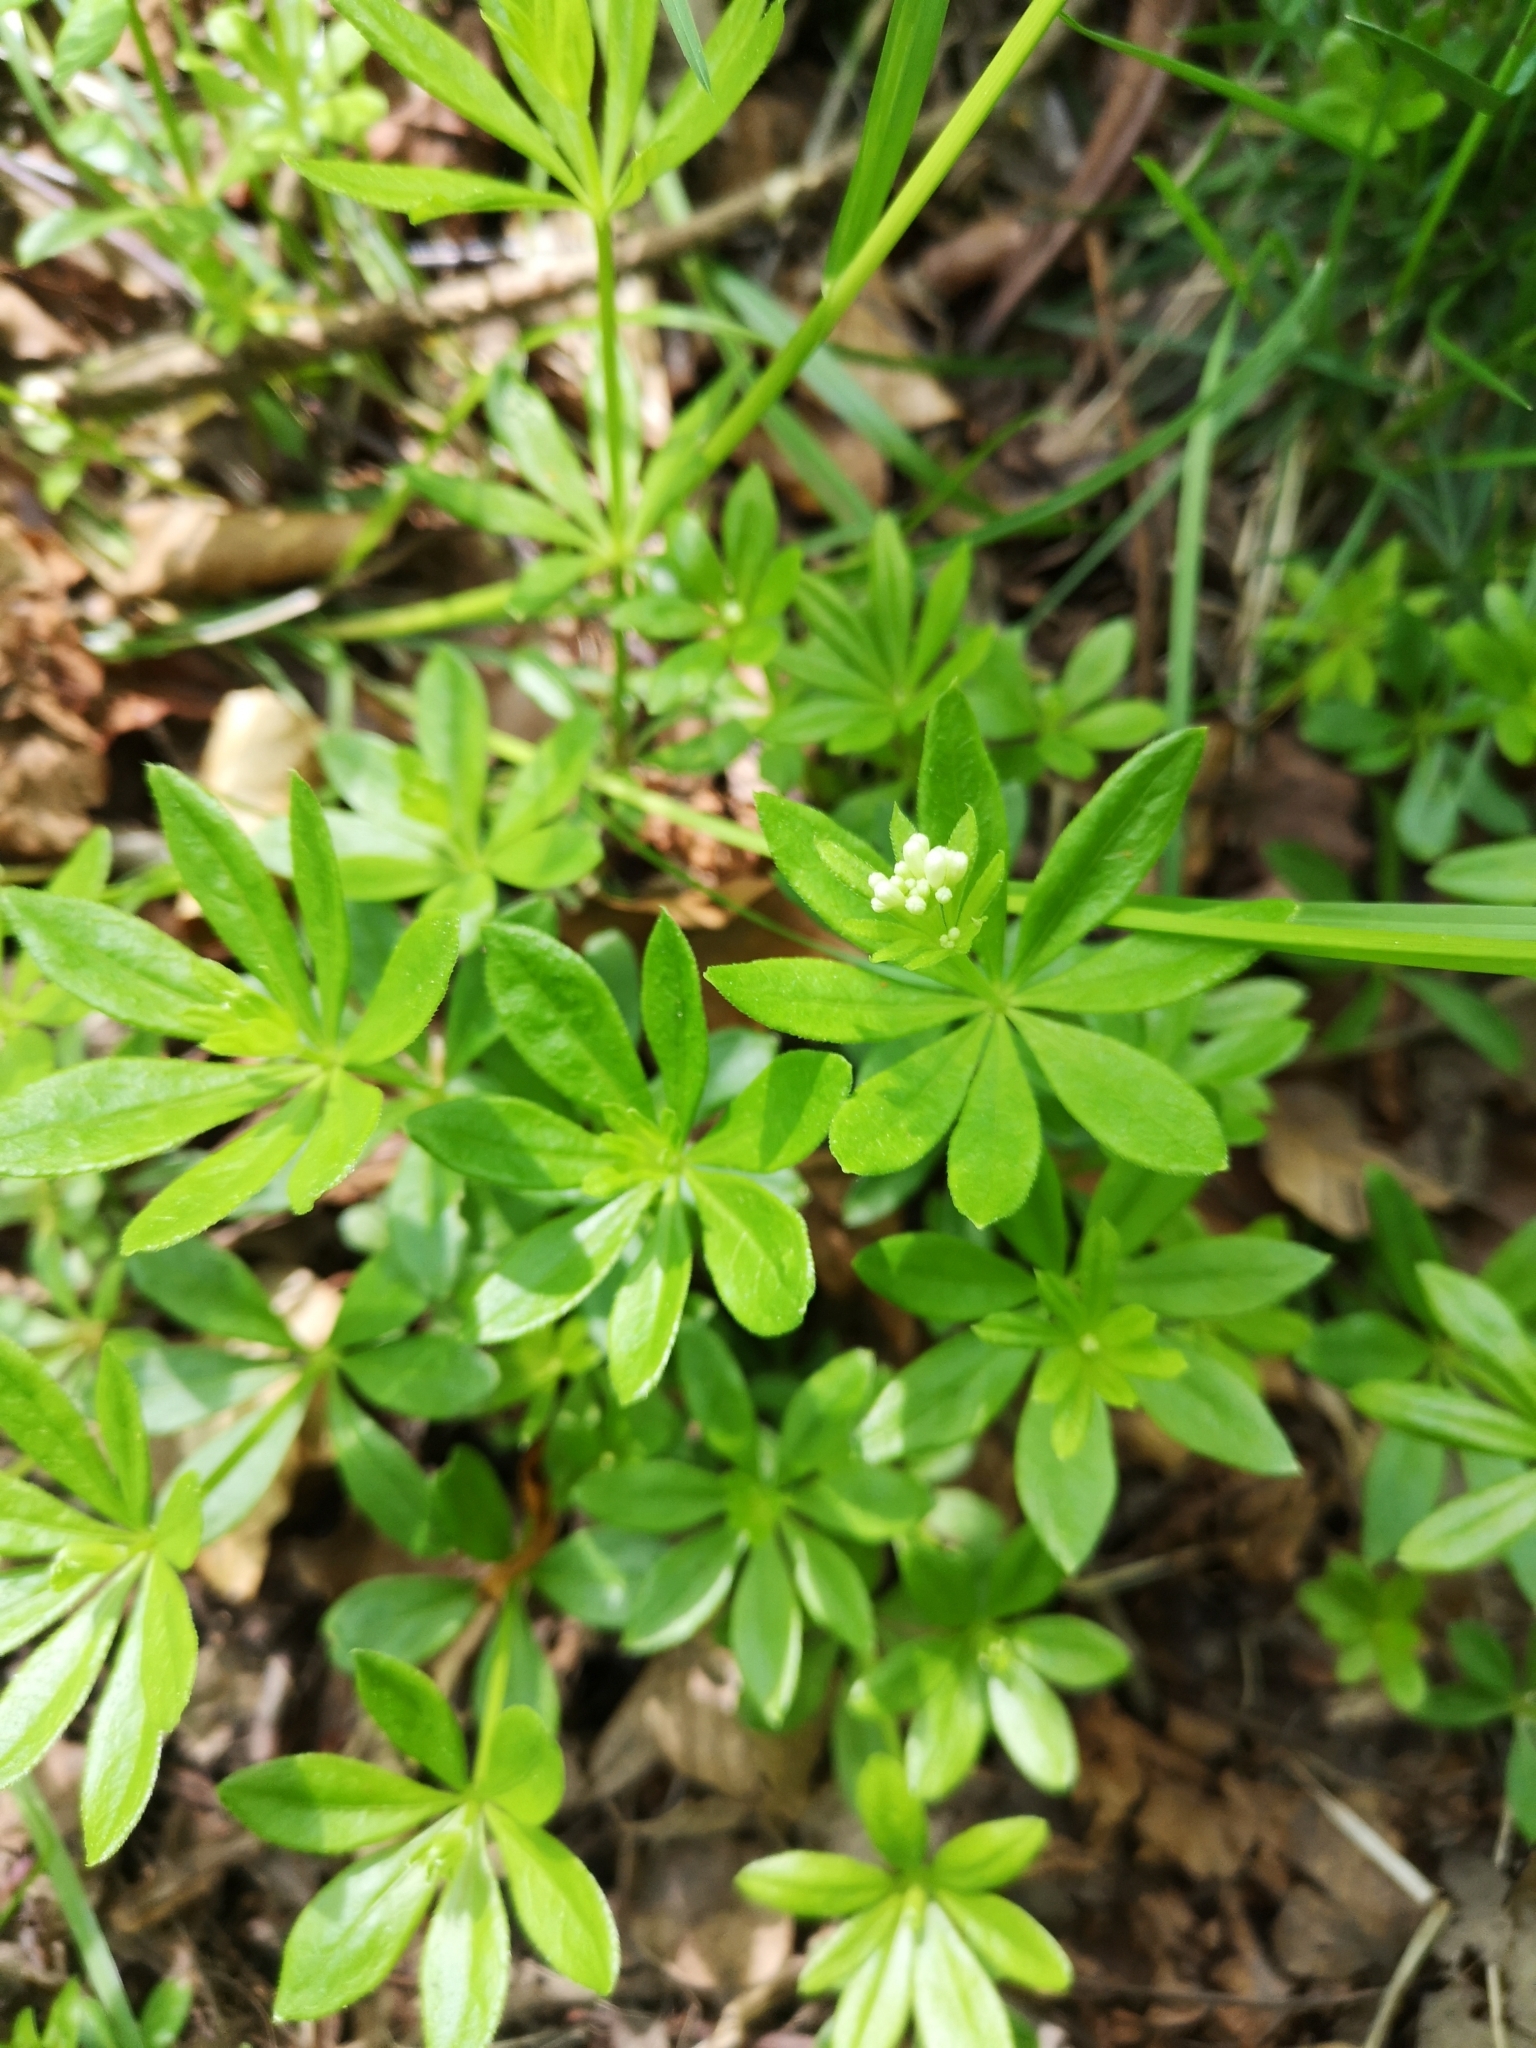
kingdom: Plantae
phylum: Tracheophyta
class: Magnoliopsida
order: Gentianales
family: Rubiaceae
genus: Galium
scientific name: Galium odoratum
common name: Sweet woodruff
